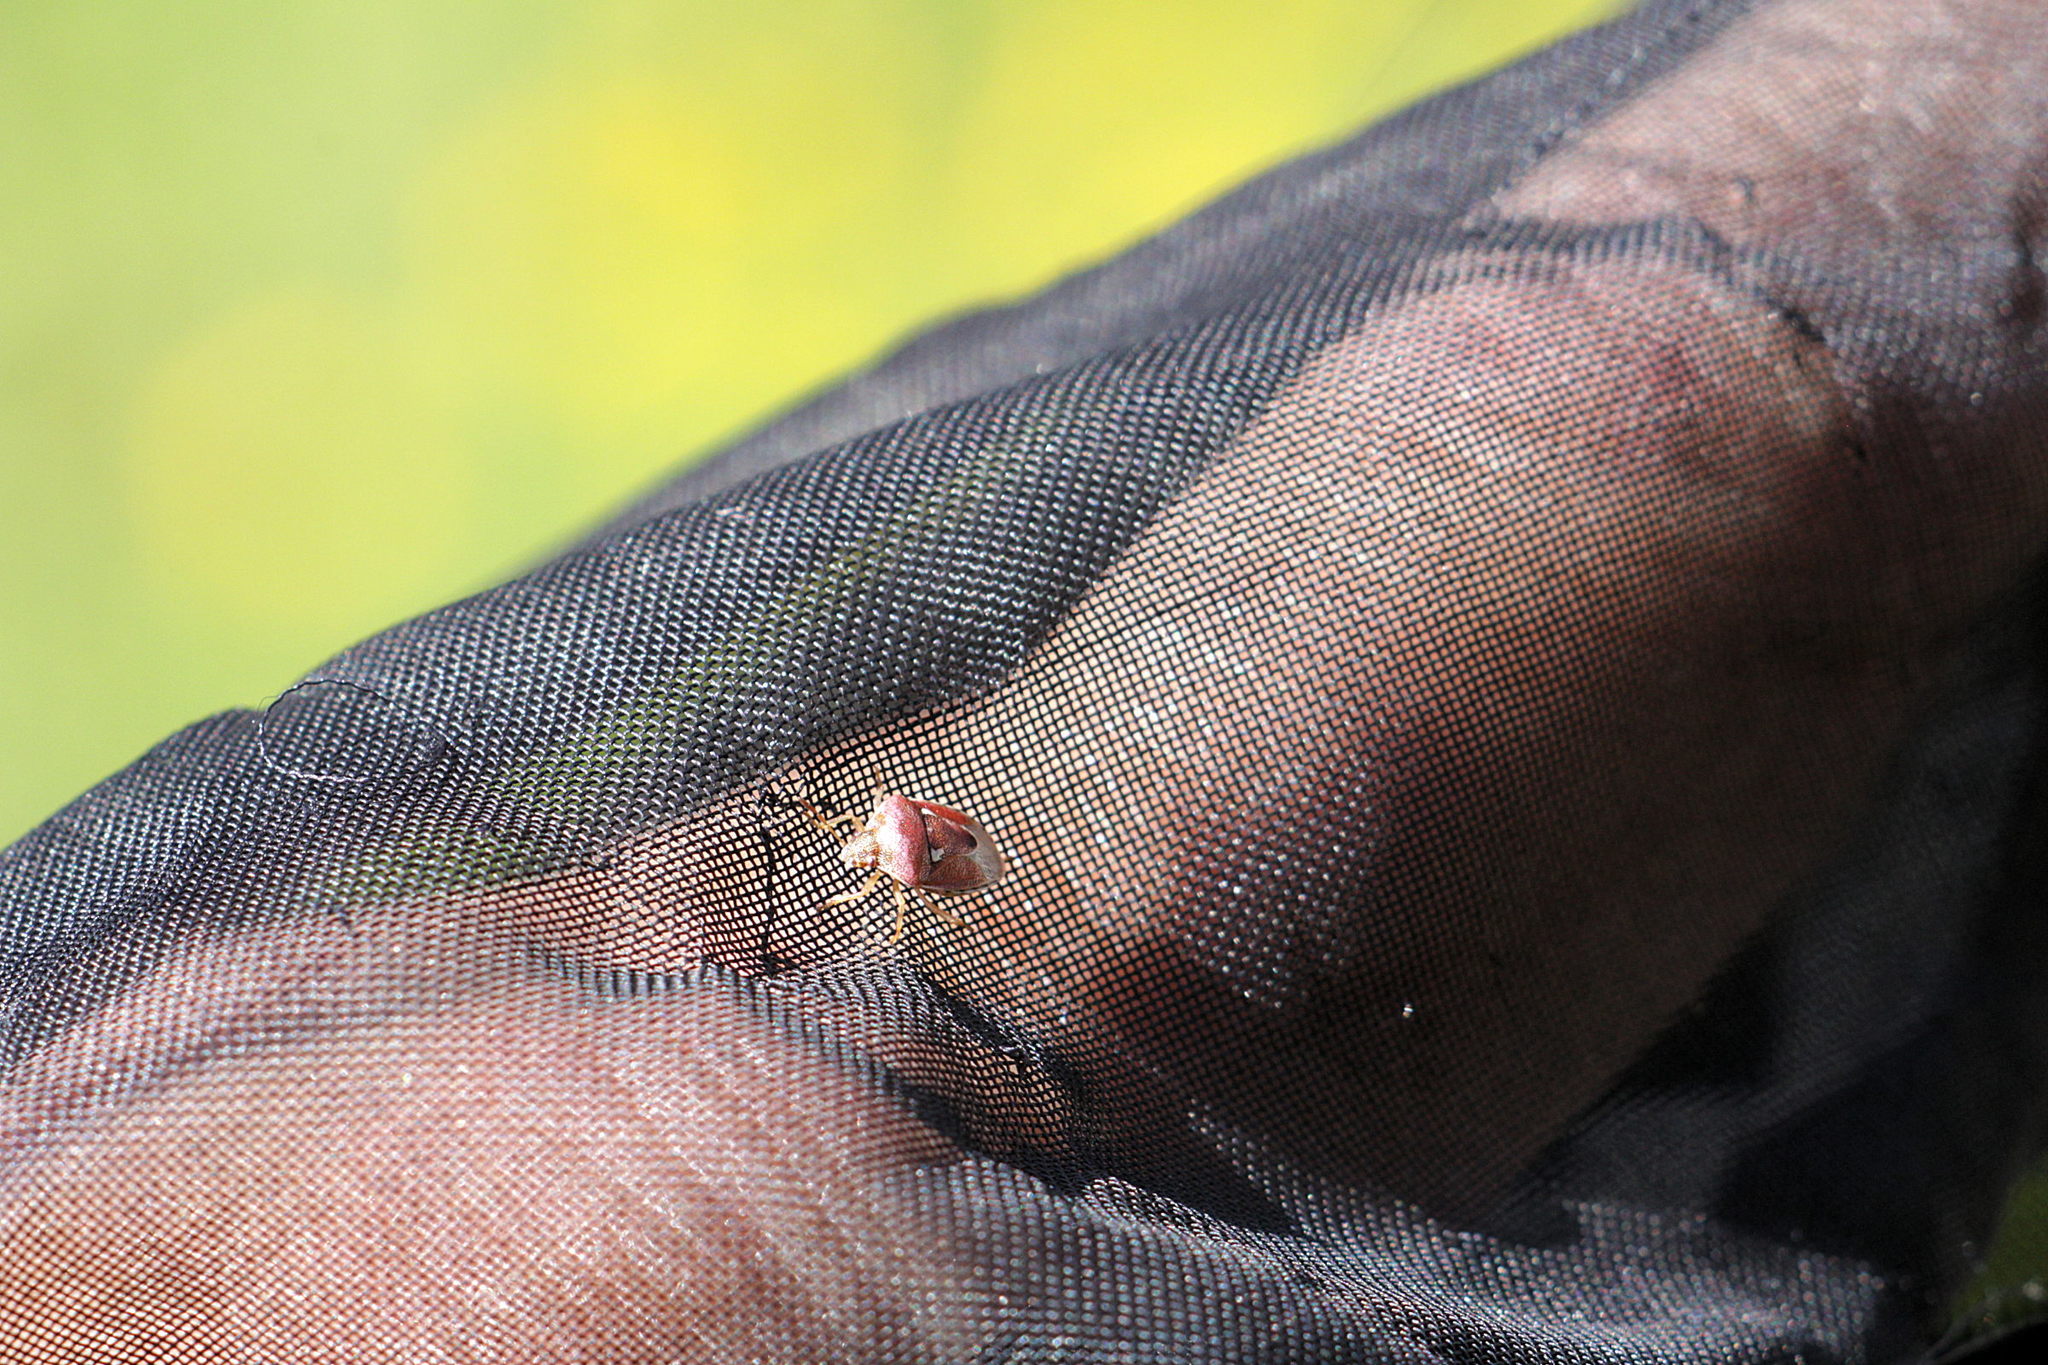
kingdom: Animalia
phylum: Arthropoda
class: Insecta
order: Hemiptera
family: Pentatomidae
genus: Stagonomus
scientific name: Stagonomus bipunctatus
